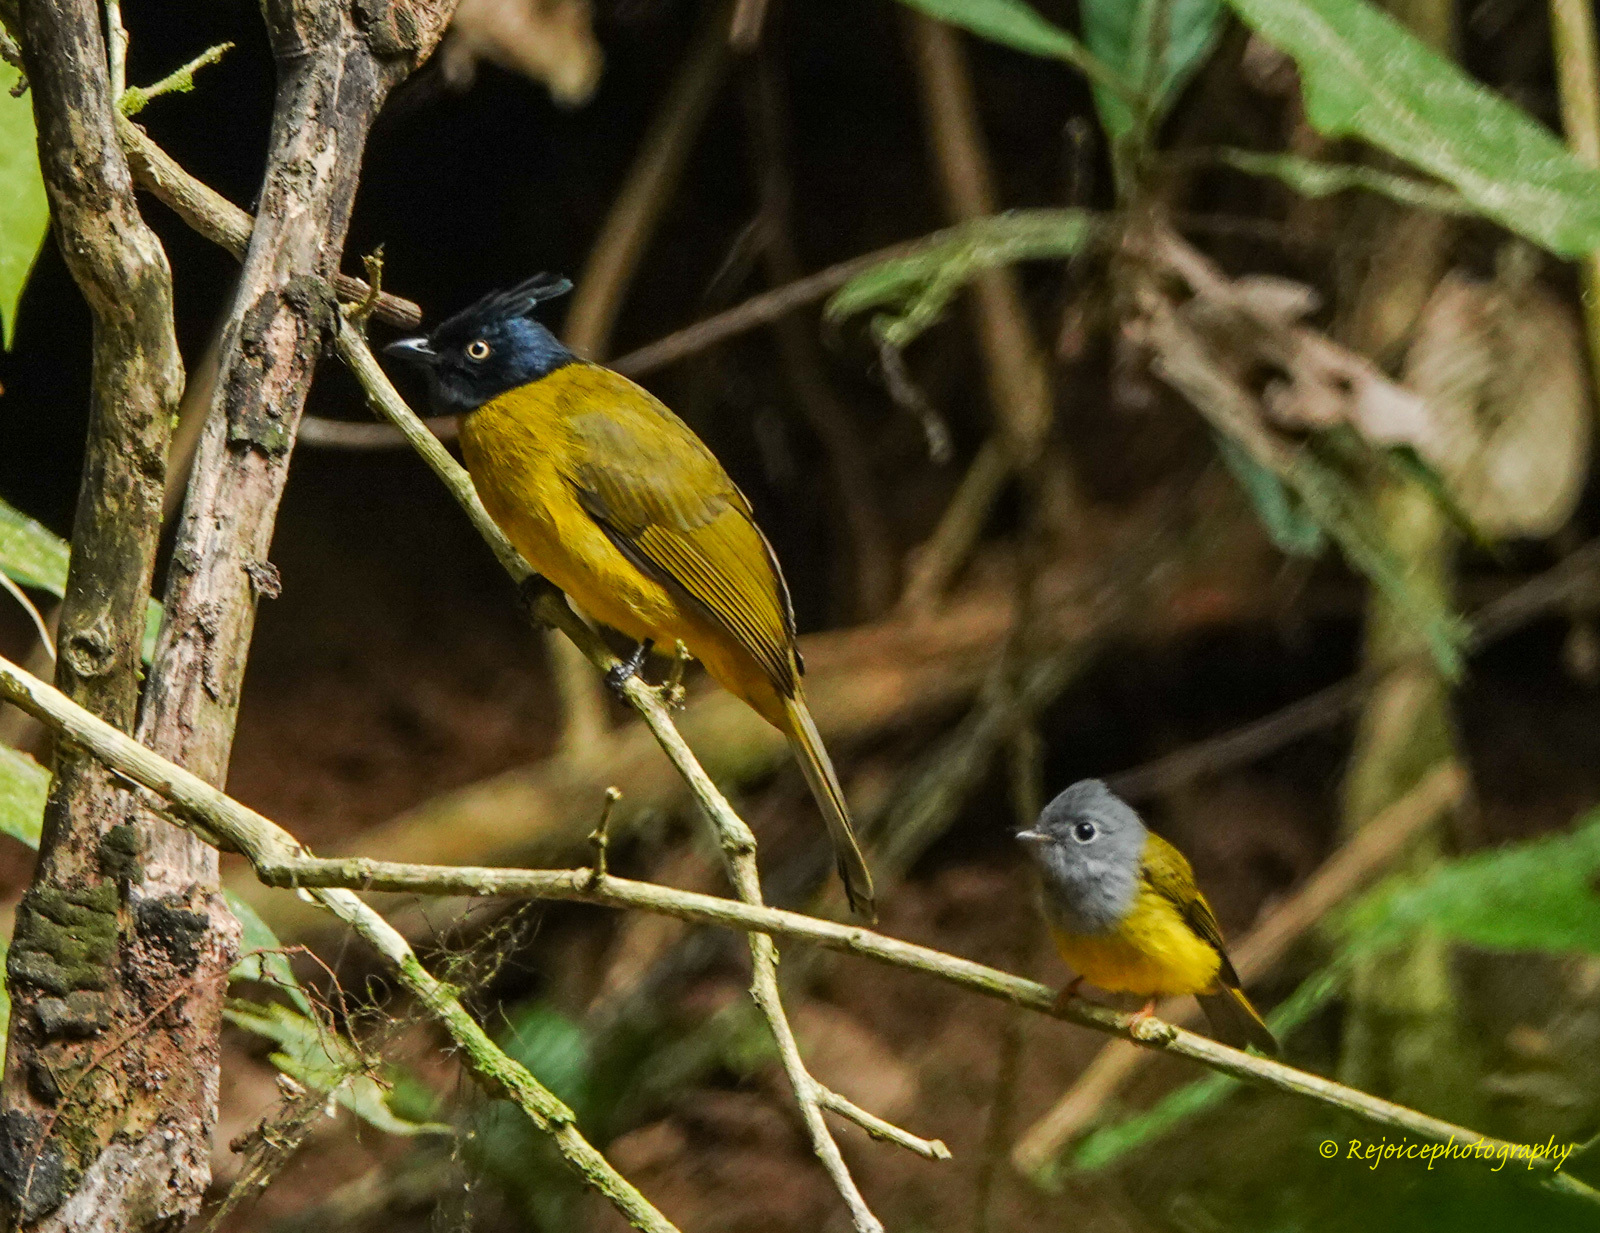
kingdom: Animalia
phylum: Chordata
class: Aves
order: Passeriformes
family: Stenostiridae
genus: Culicicapa
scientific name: Culicicapa ceylonensis
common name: Grey-headed canary-flycatcher
